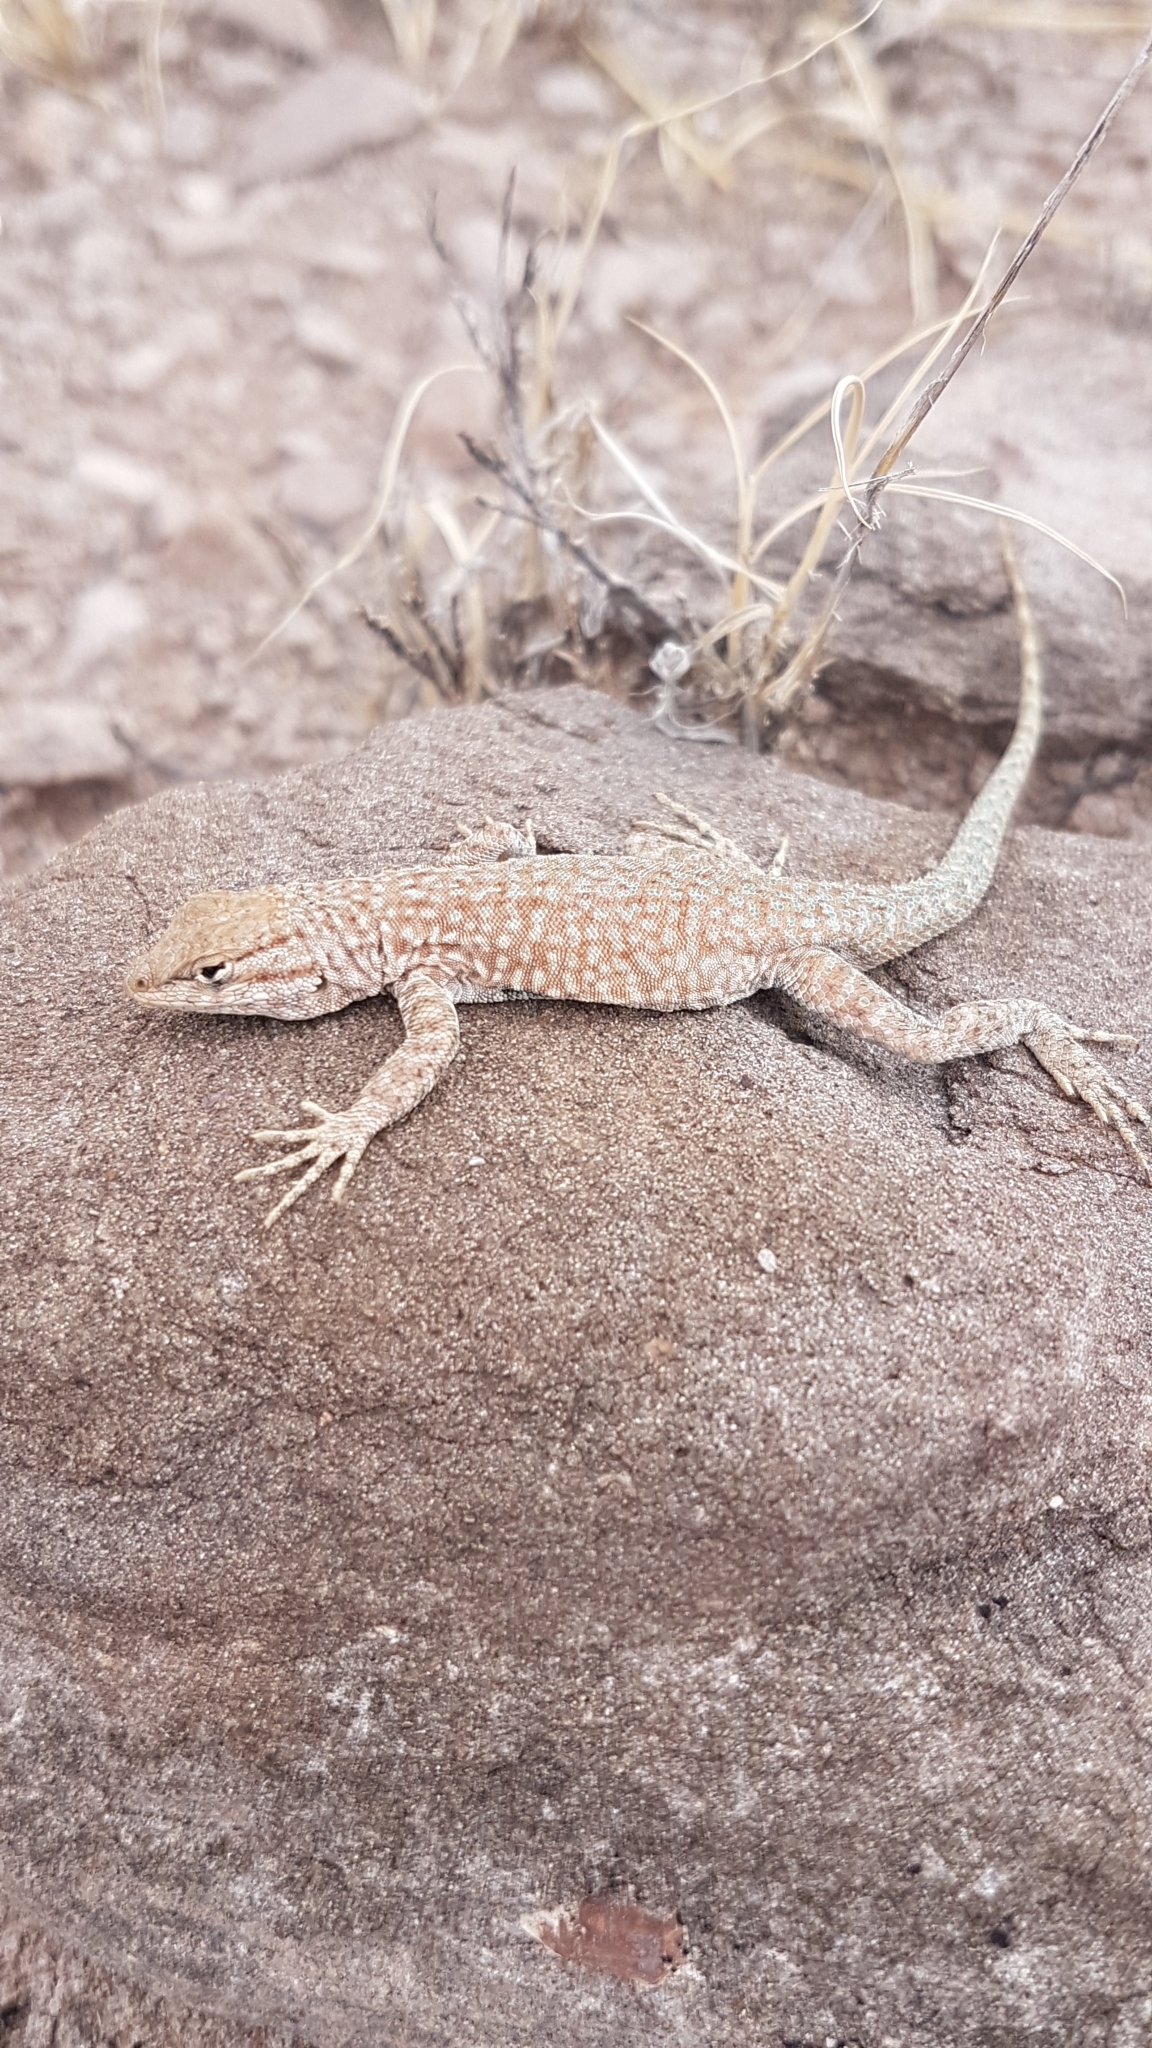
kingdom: Animalia
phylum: Chordata
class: Squamata
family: Phrynosomatidae
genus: Uta
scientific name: Uta stansburiana
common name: Side-blotched lizard
